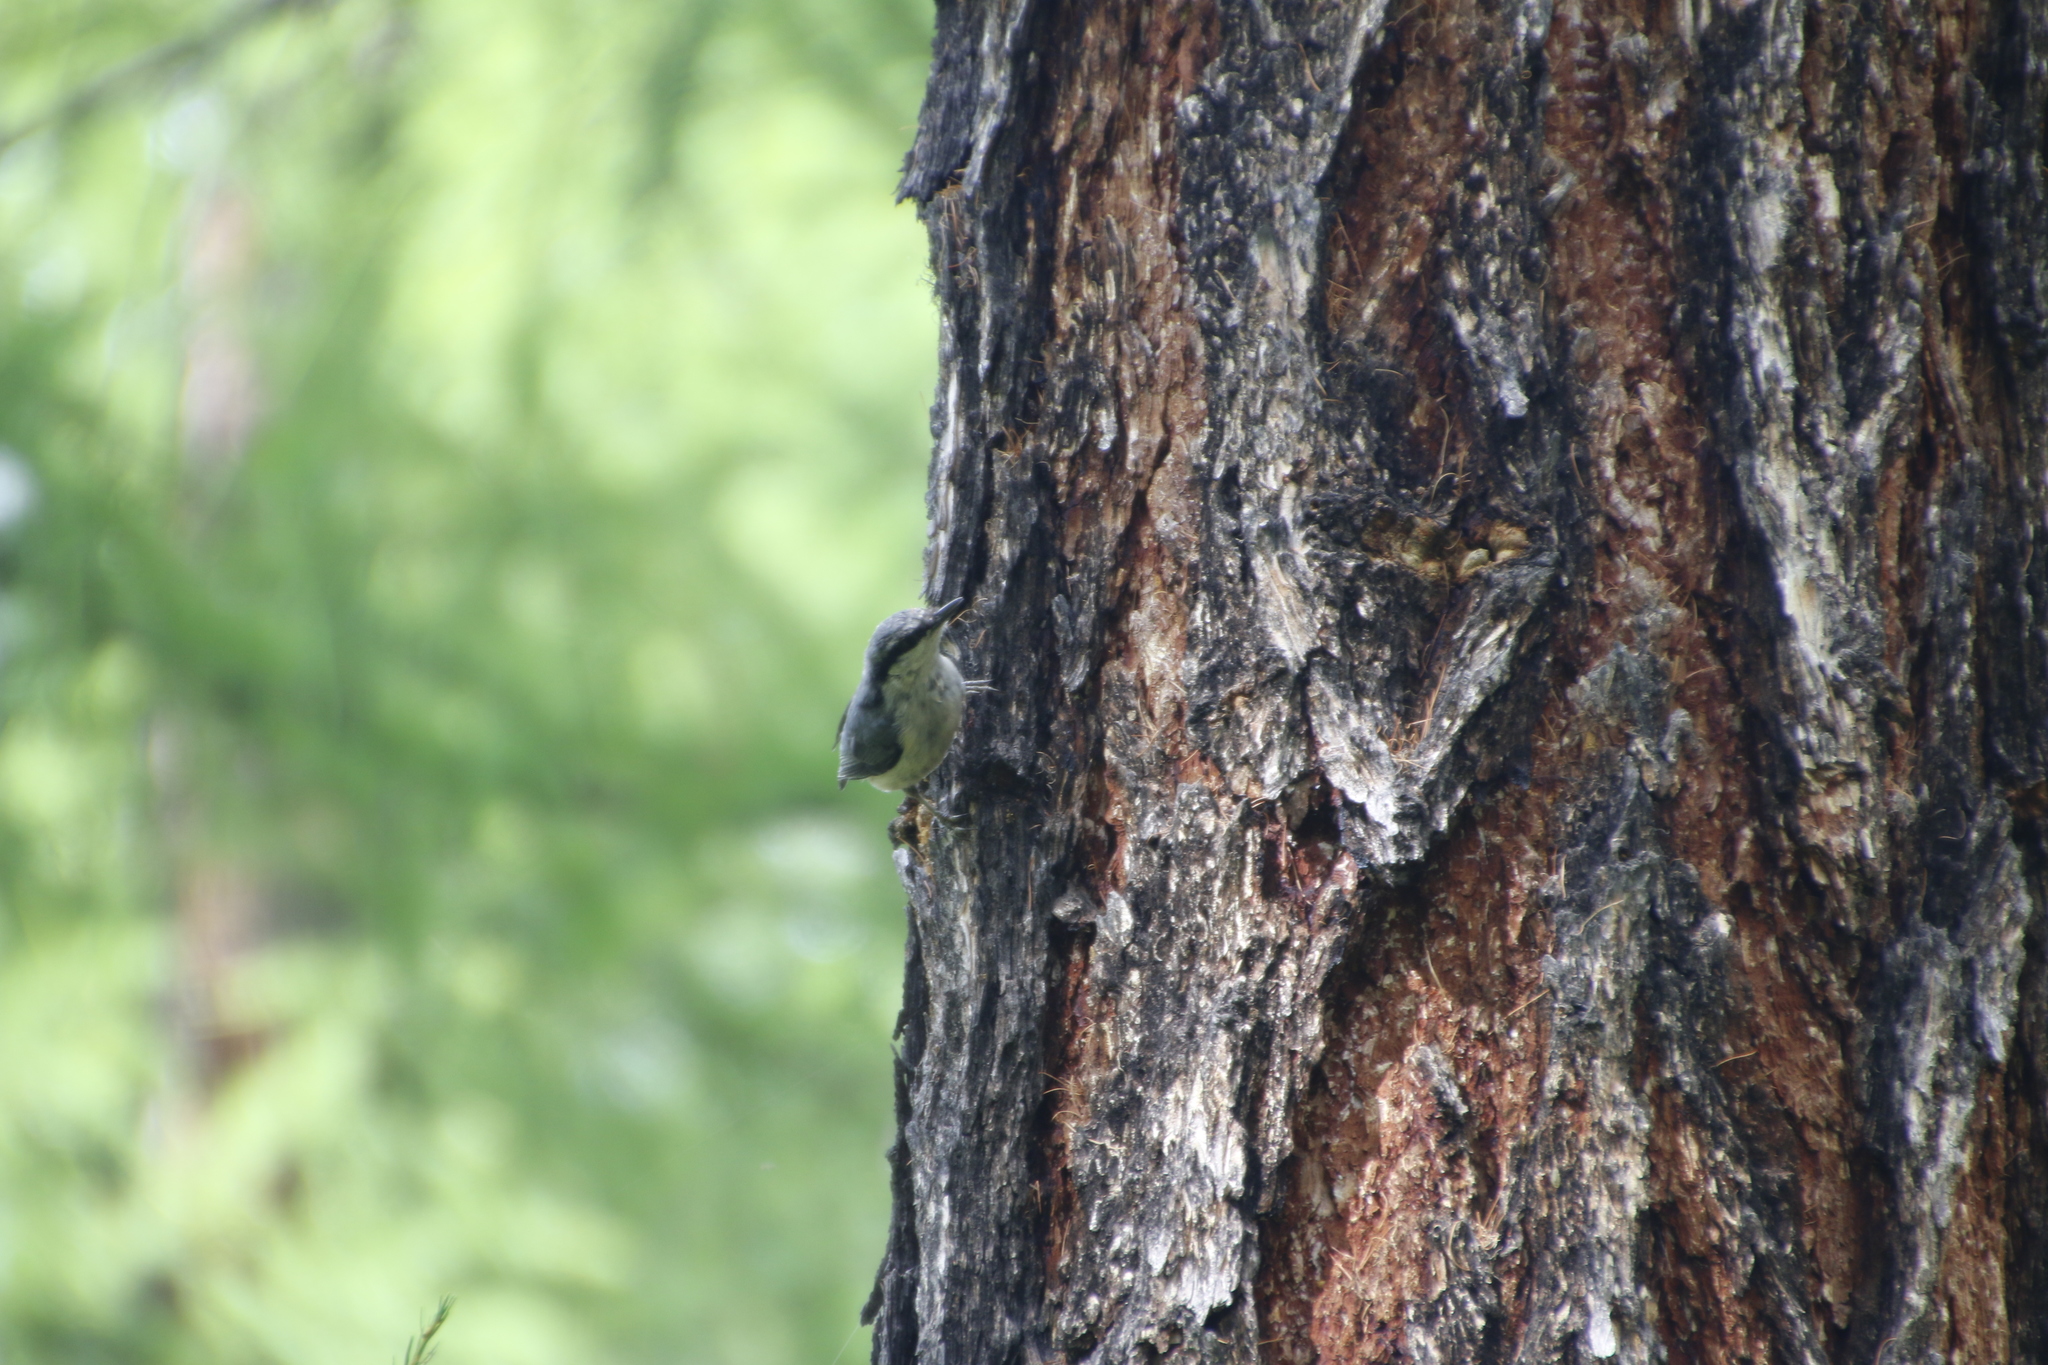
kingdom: Animalia
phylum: Chordata
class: Aves
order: Passeriformes
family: Sittidae
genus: Sitta
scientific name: Sitta europaea
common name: Eurasian nuthatch
